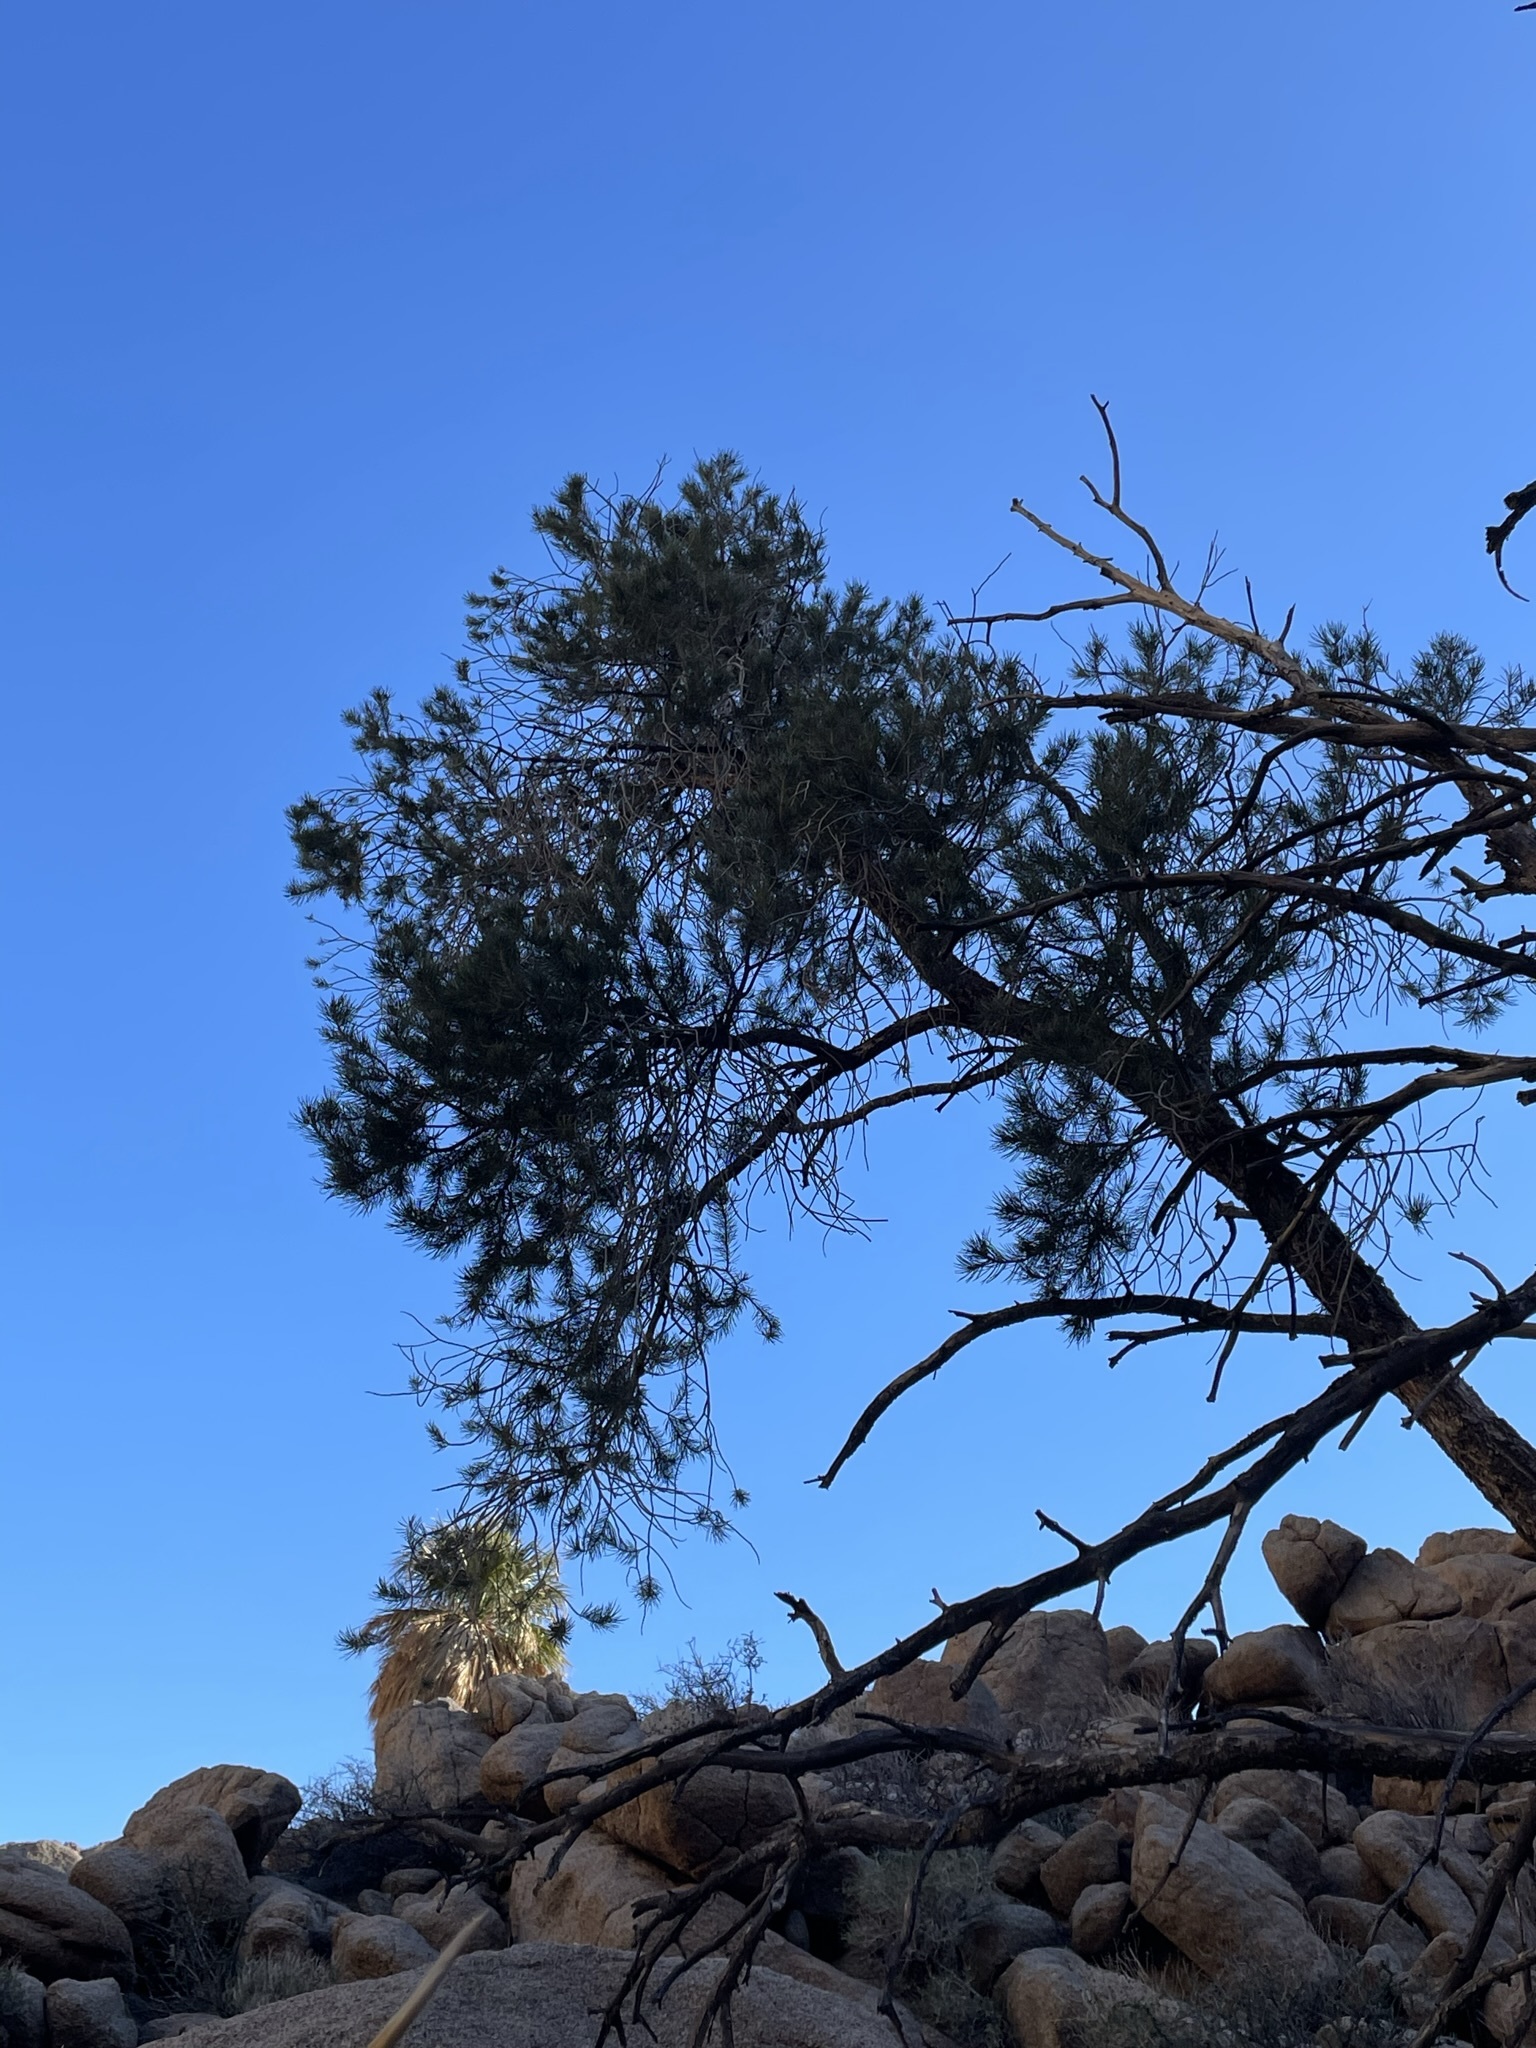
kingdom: Plantae
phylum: Tracheophyta
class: Pinopsida
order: Pinales
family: Pinaceae
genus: Pinus
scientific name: Pinus monophylla
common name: One-leaved nut pine
